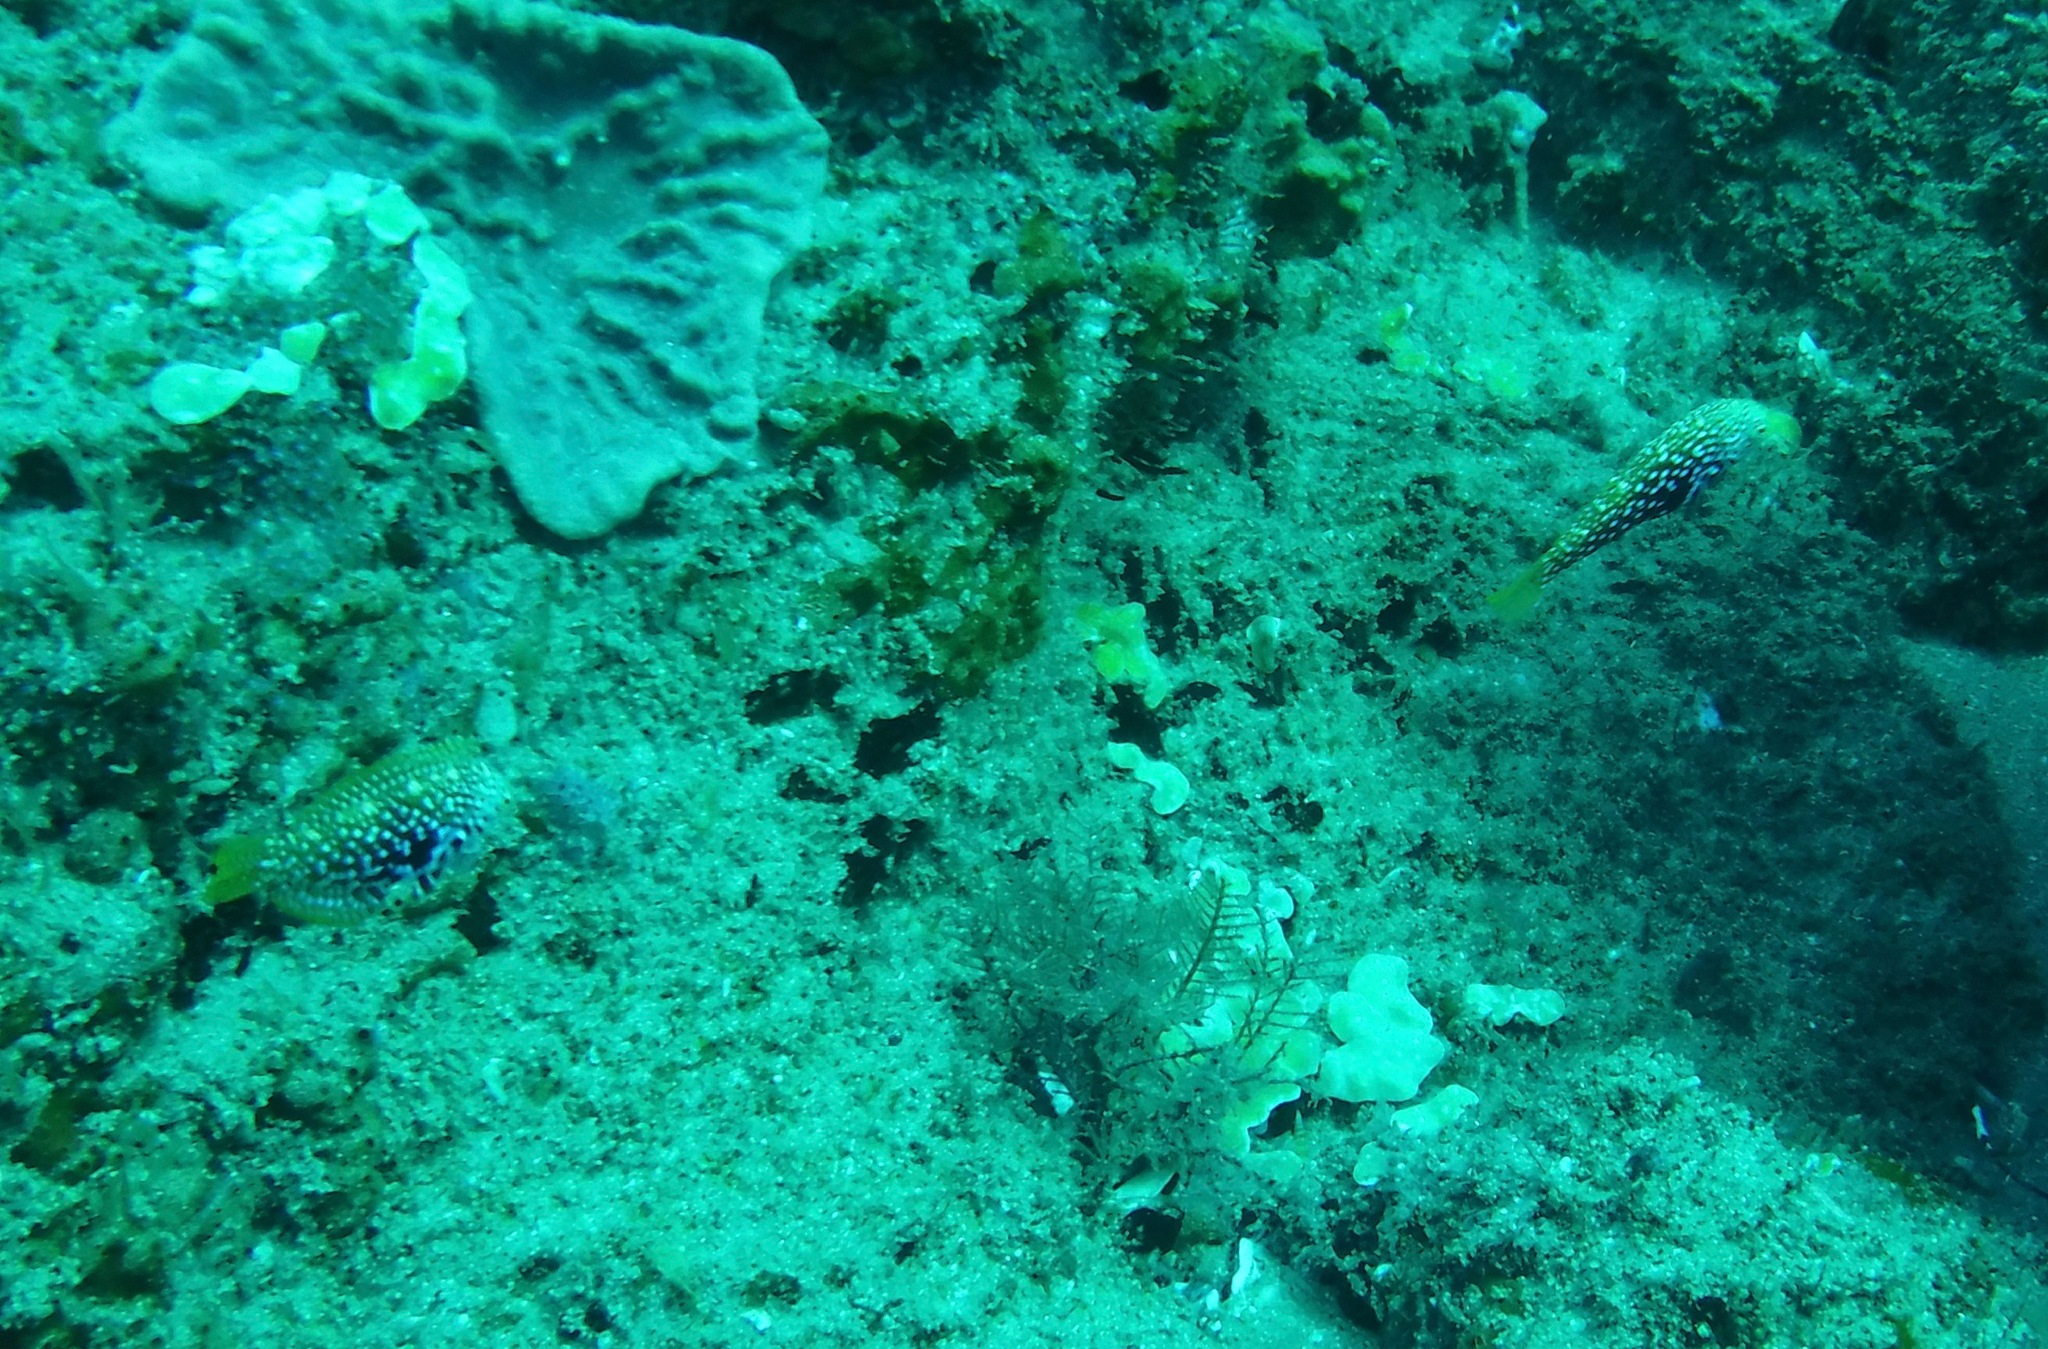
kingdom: Animalia
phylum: Chordata
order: Perciformes
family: Labridae
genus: Macropharyngodon
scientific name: Macropharyngodon bipartitus
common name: Divided wrasse
